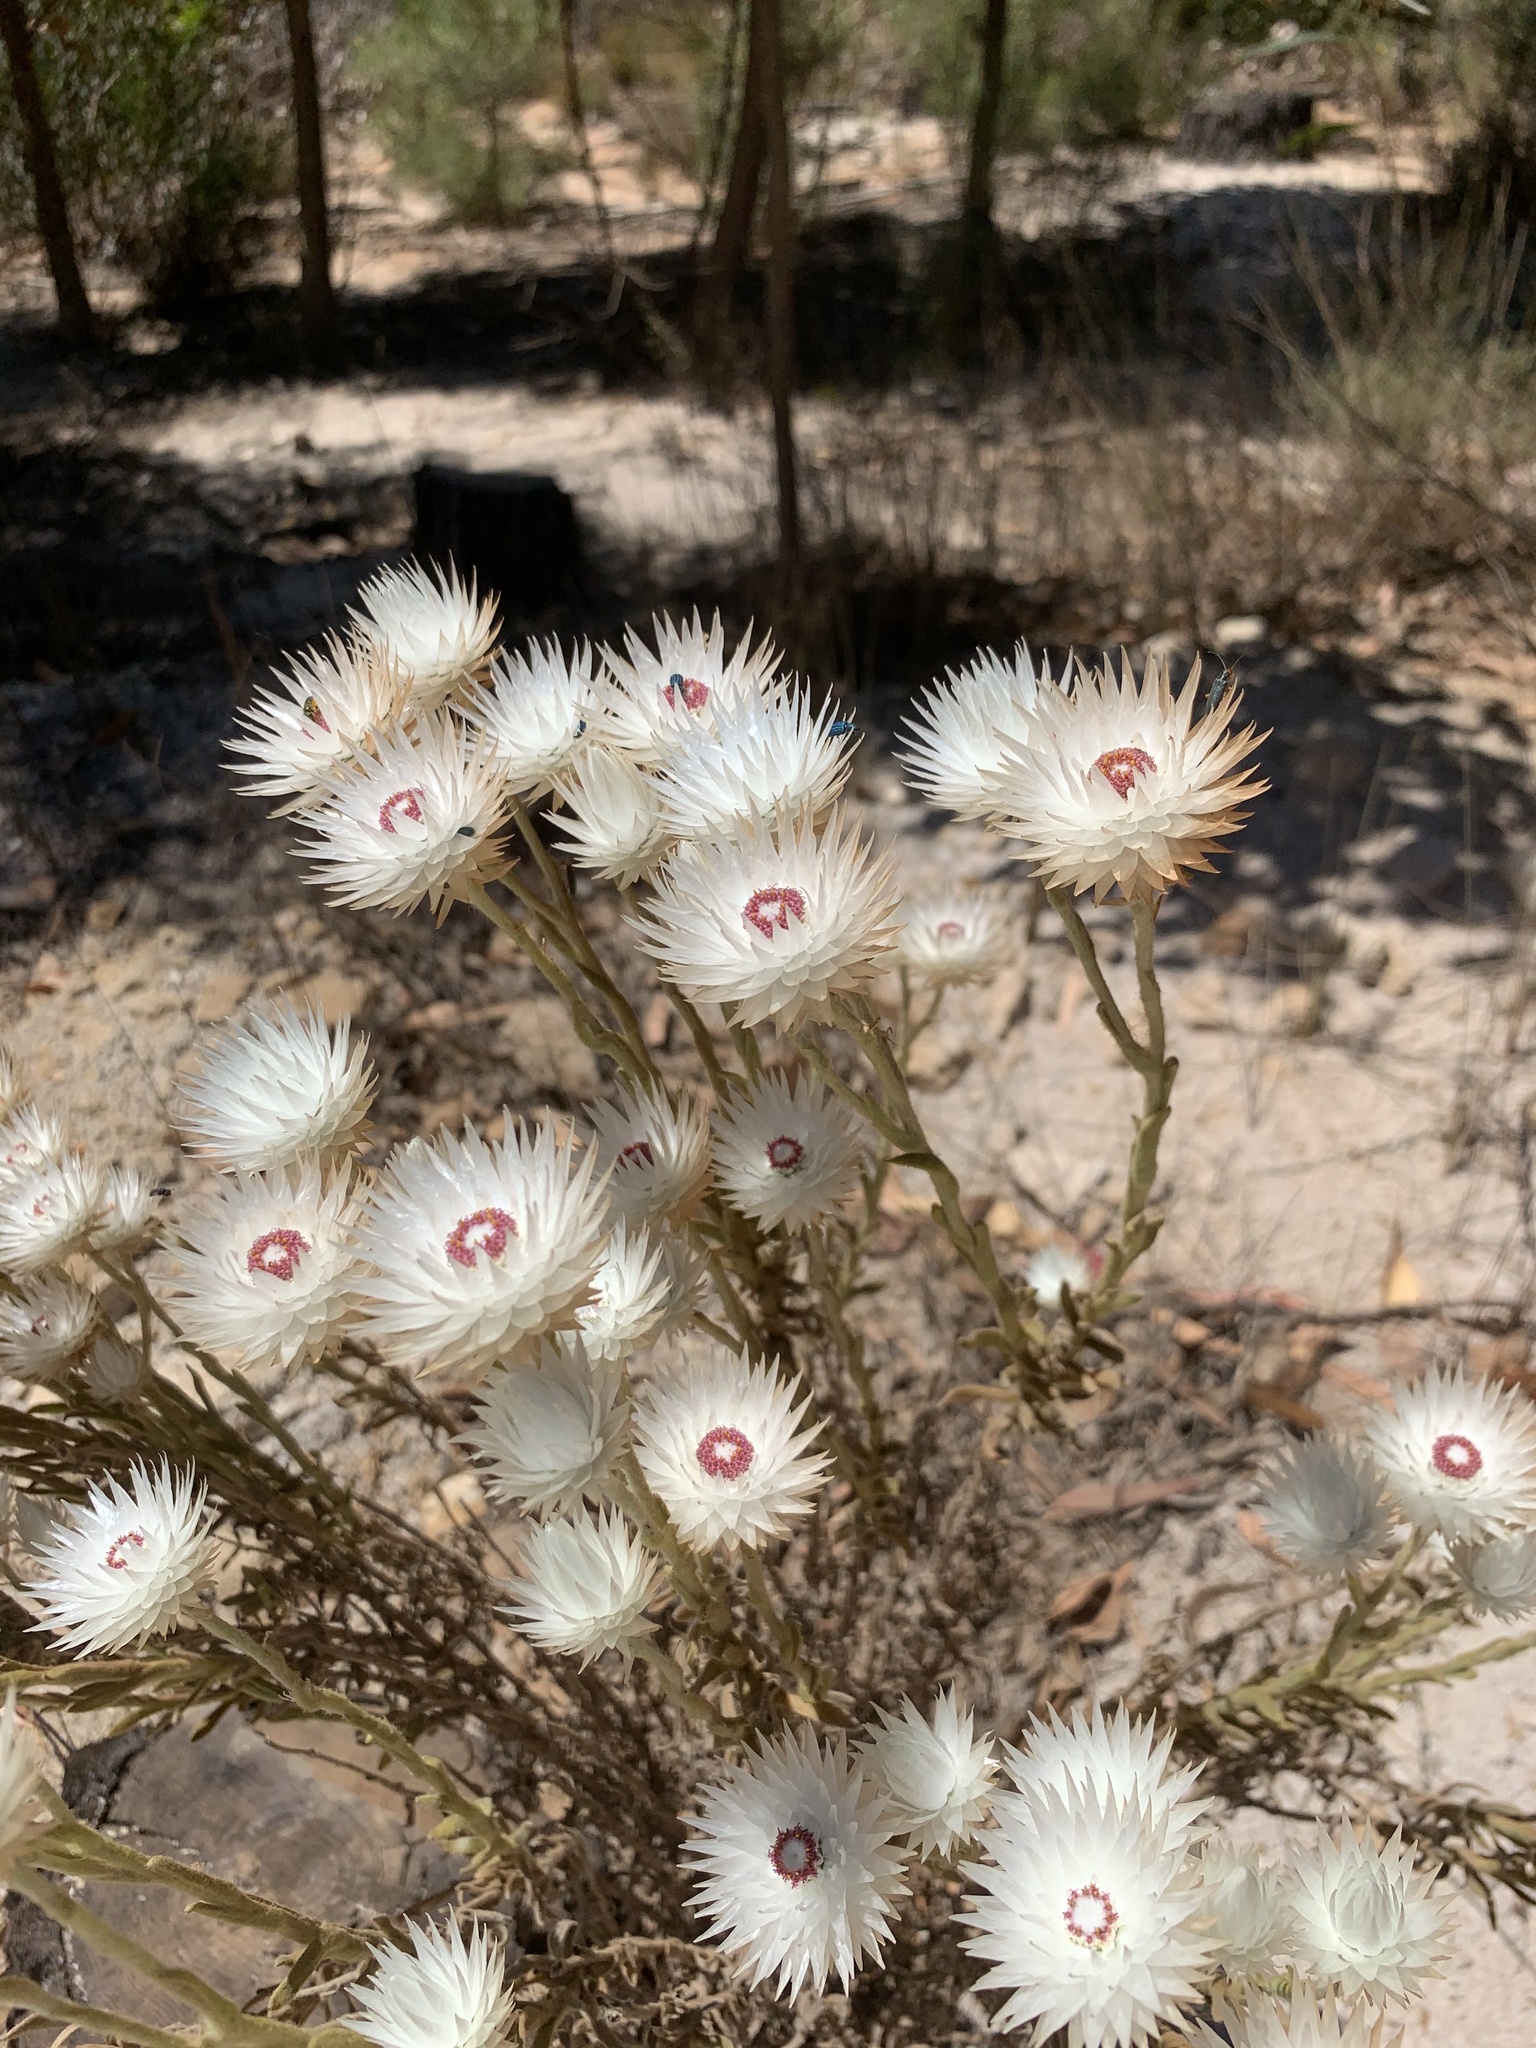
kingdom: Plantae
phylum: Tracheophyta
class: Magnoliopsida
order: Asterales
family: Asteraceae
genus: Syncarpha
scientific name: Syncarpha vestita
